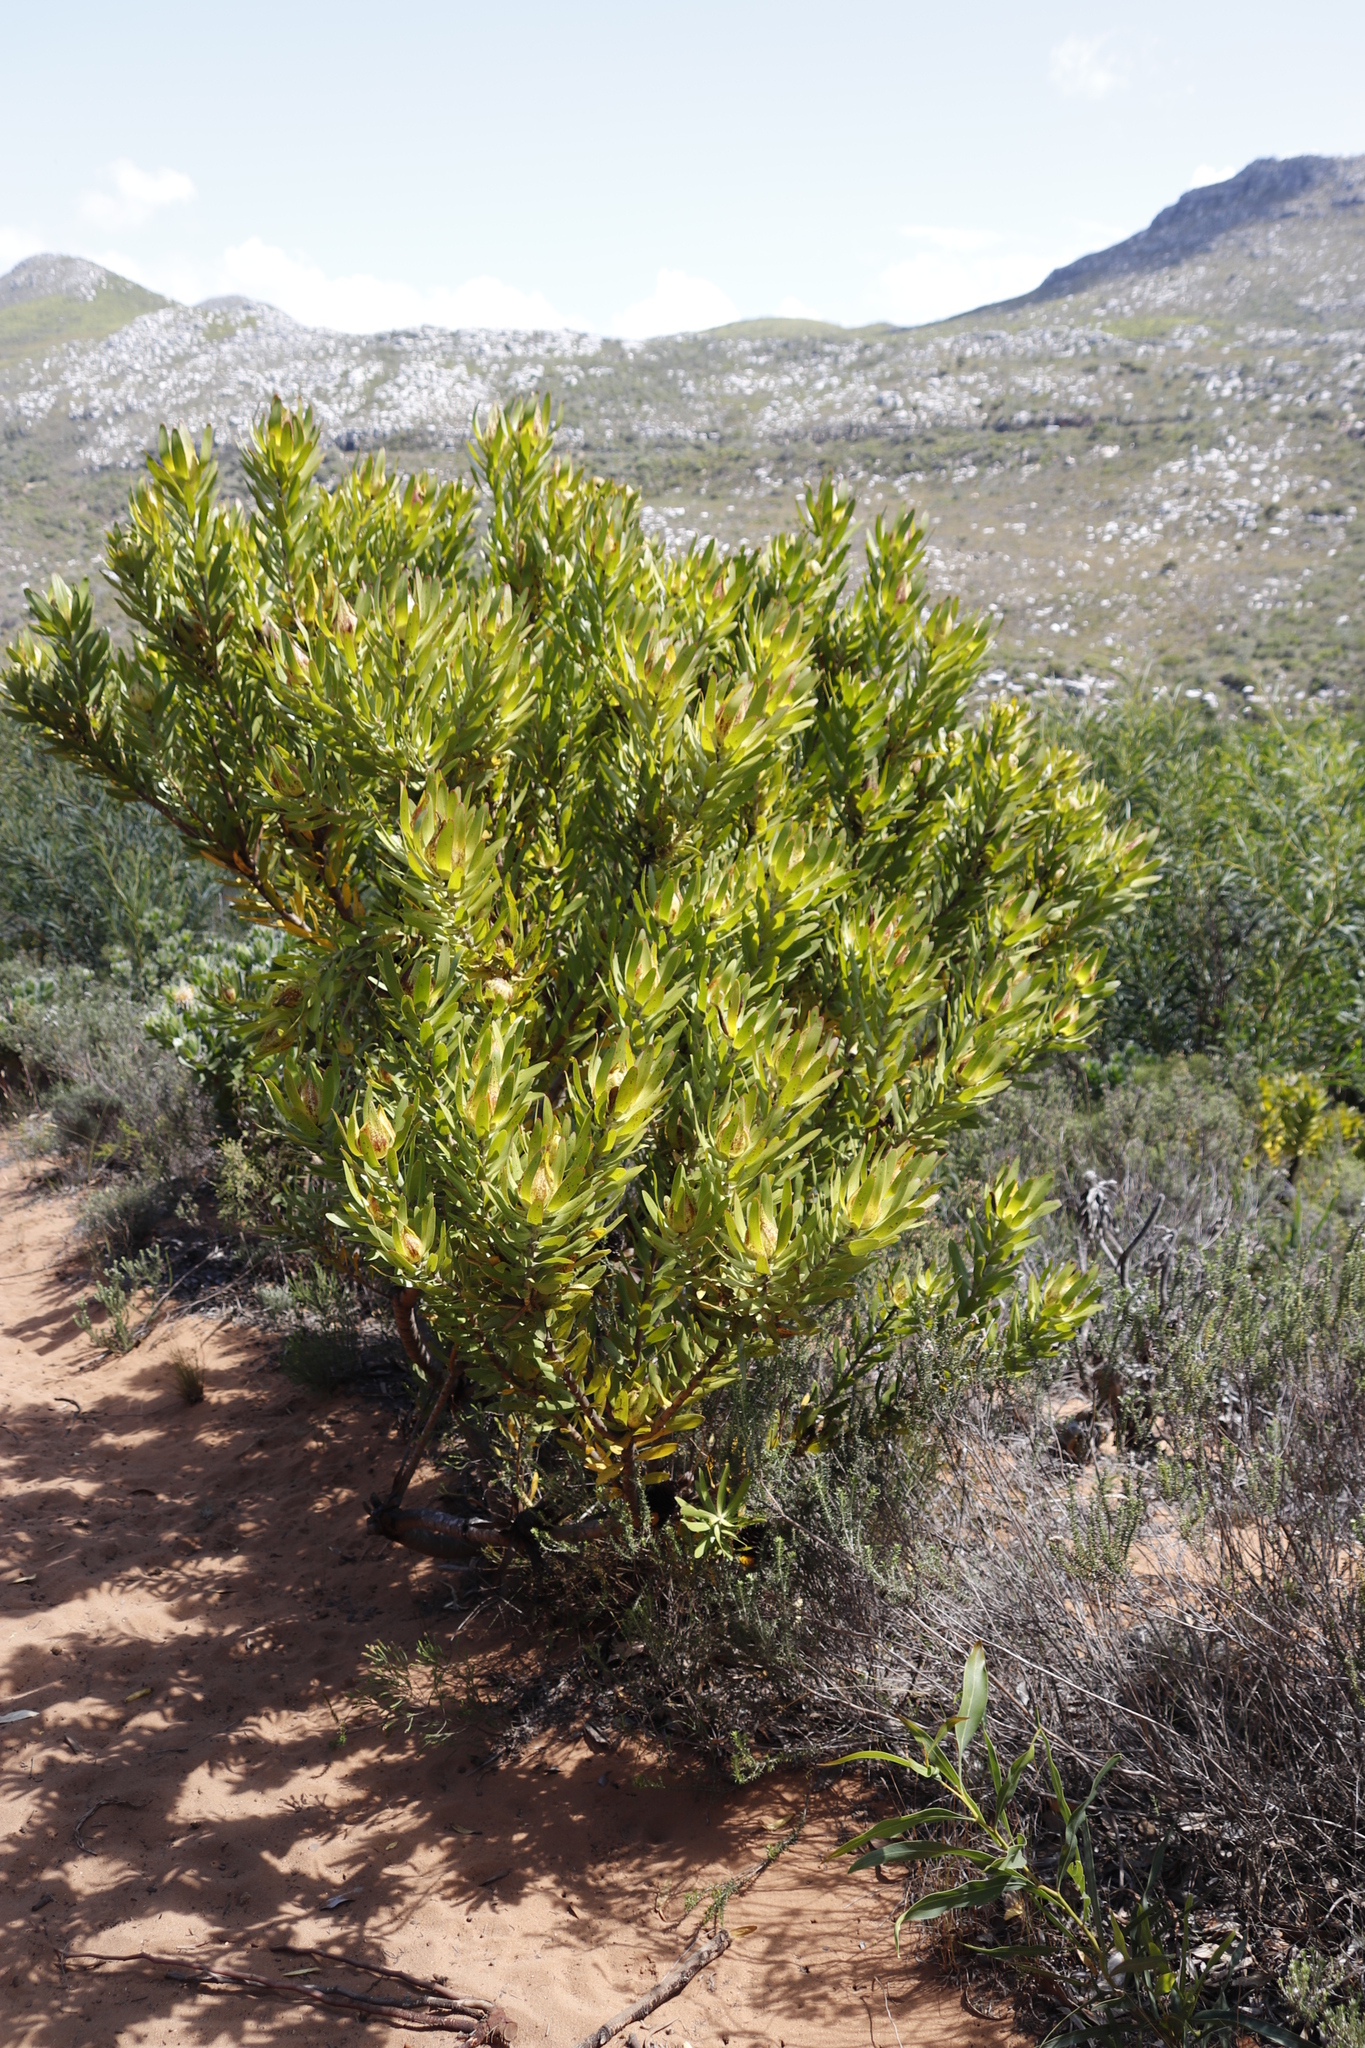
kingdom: Plantae
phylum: Tracheophyta
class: Magnoliopsida
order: Proteales
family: Proteaceae
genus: Leucadendron
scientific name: Leucadendron laureolum
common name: Golden sunshinebush
